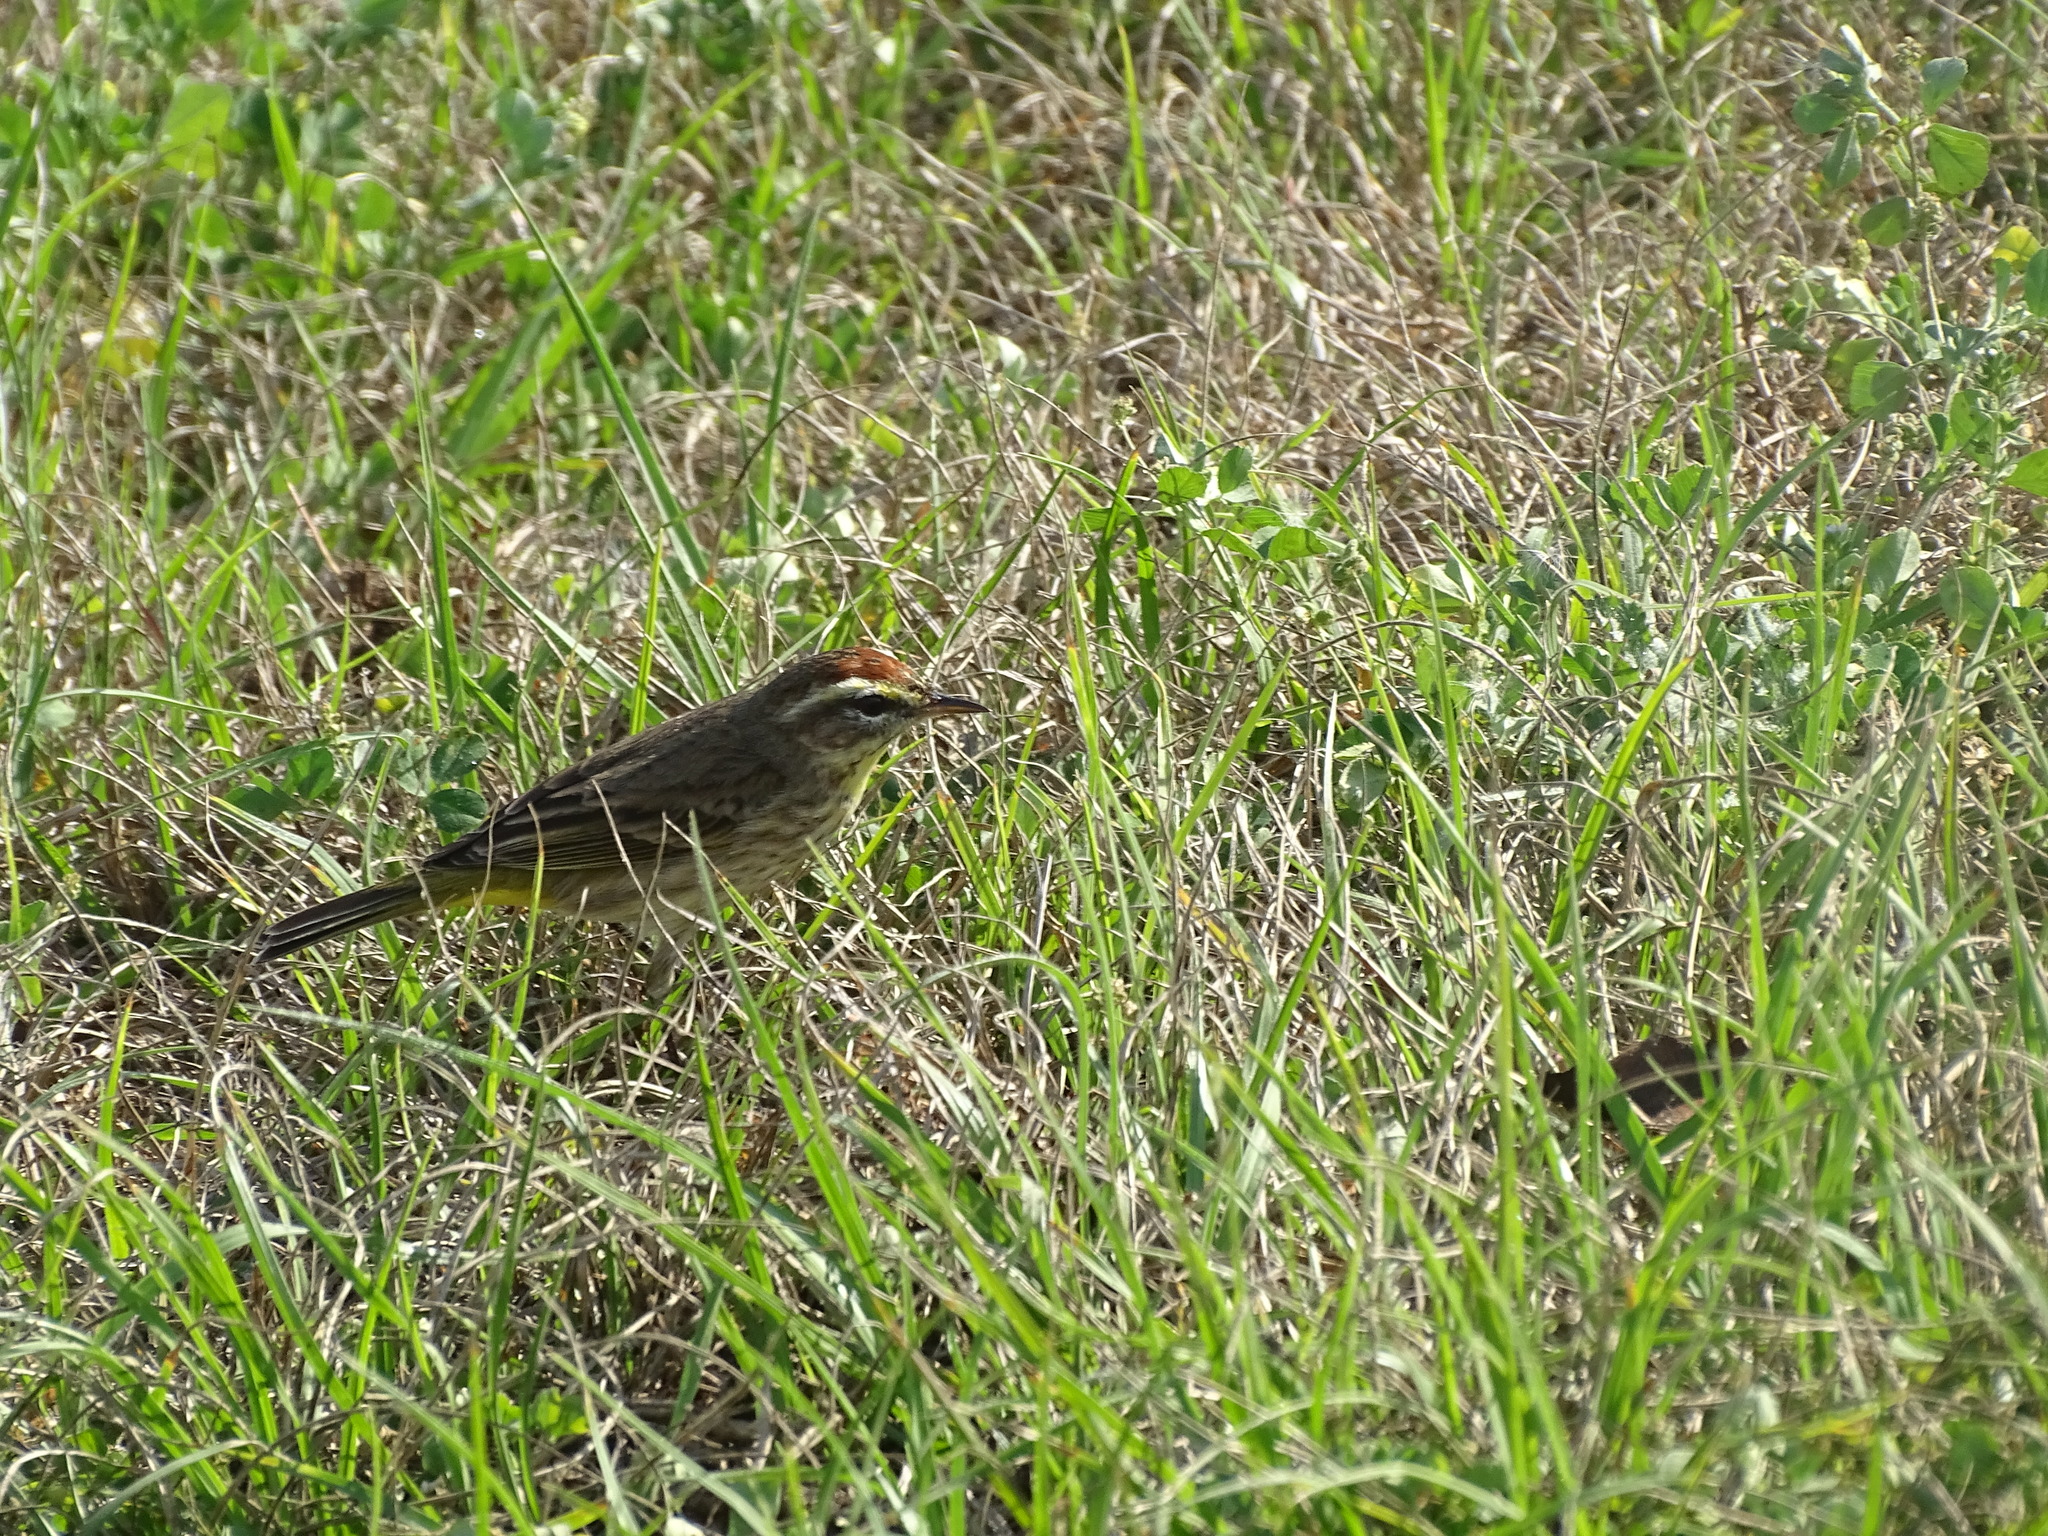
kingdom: Animalia
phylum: Chordata
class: Aves
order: Passeriformes
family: Parulidae
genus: Setophaga
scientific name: Setophaga palmarum
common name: Palm warbler
